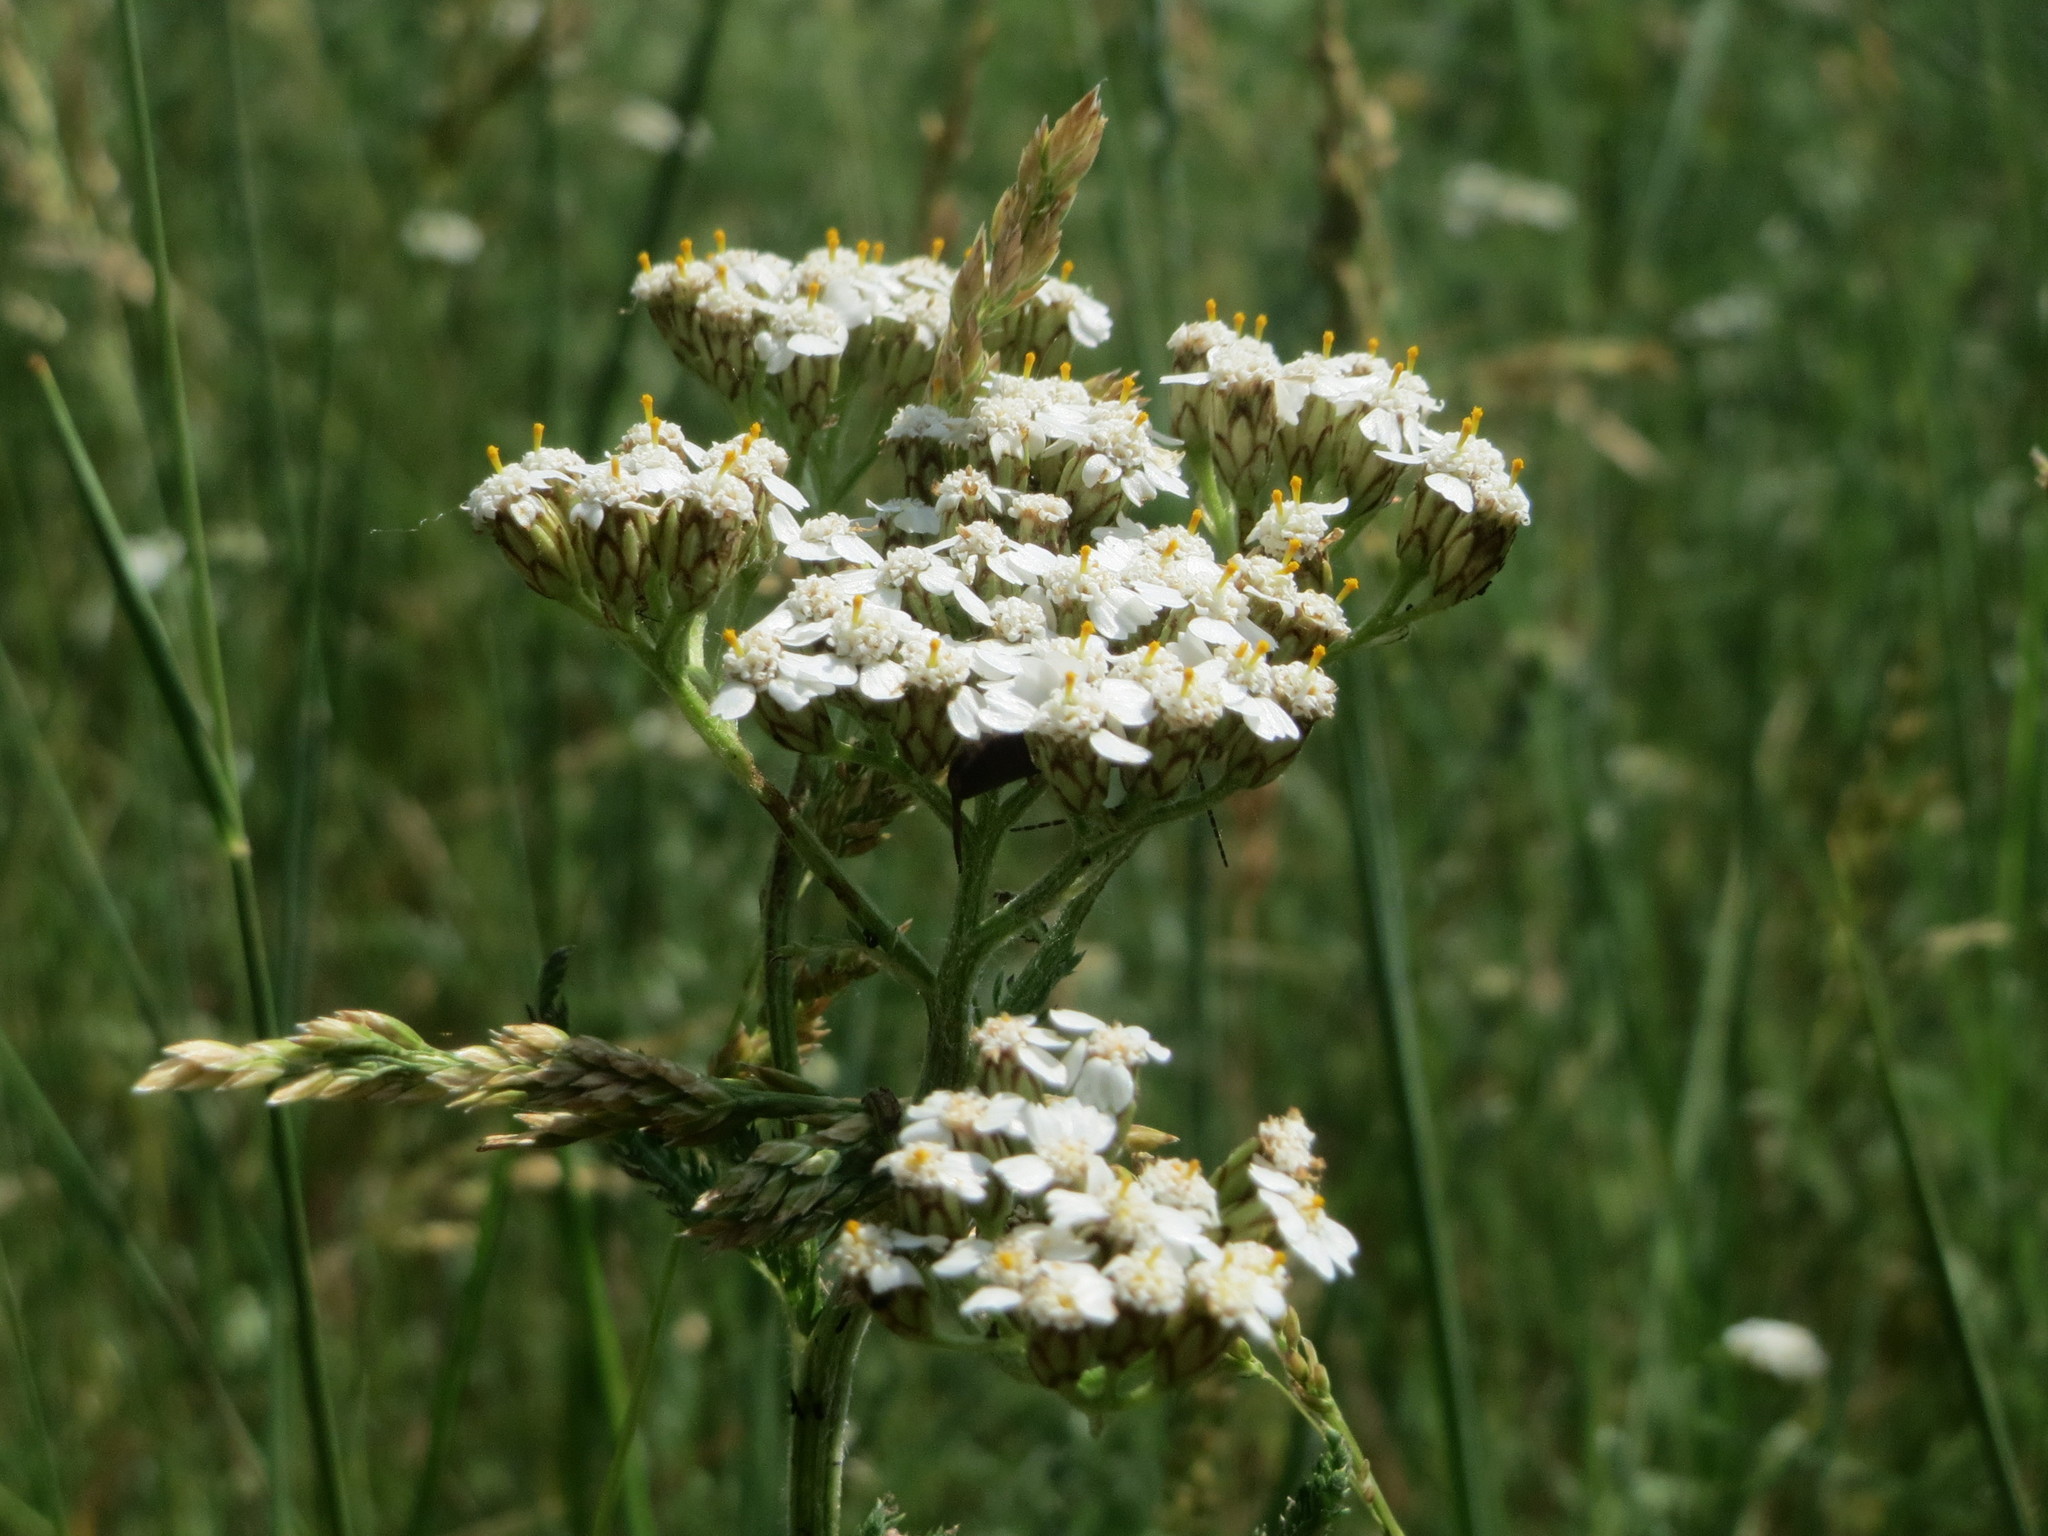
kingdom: Plantae
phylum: Tracheophyta
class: Magnoliopsida
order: Asterales
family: Asteraceae
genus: Achillea
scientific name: Achillea millefolium
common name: Yarrow
